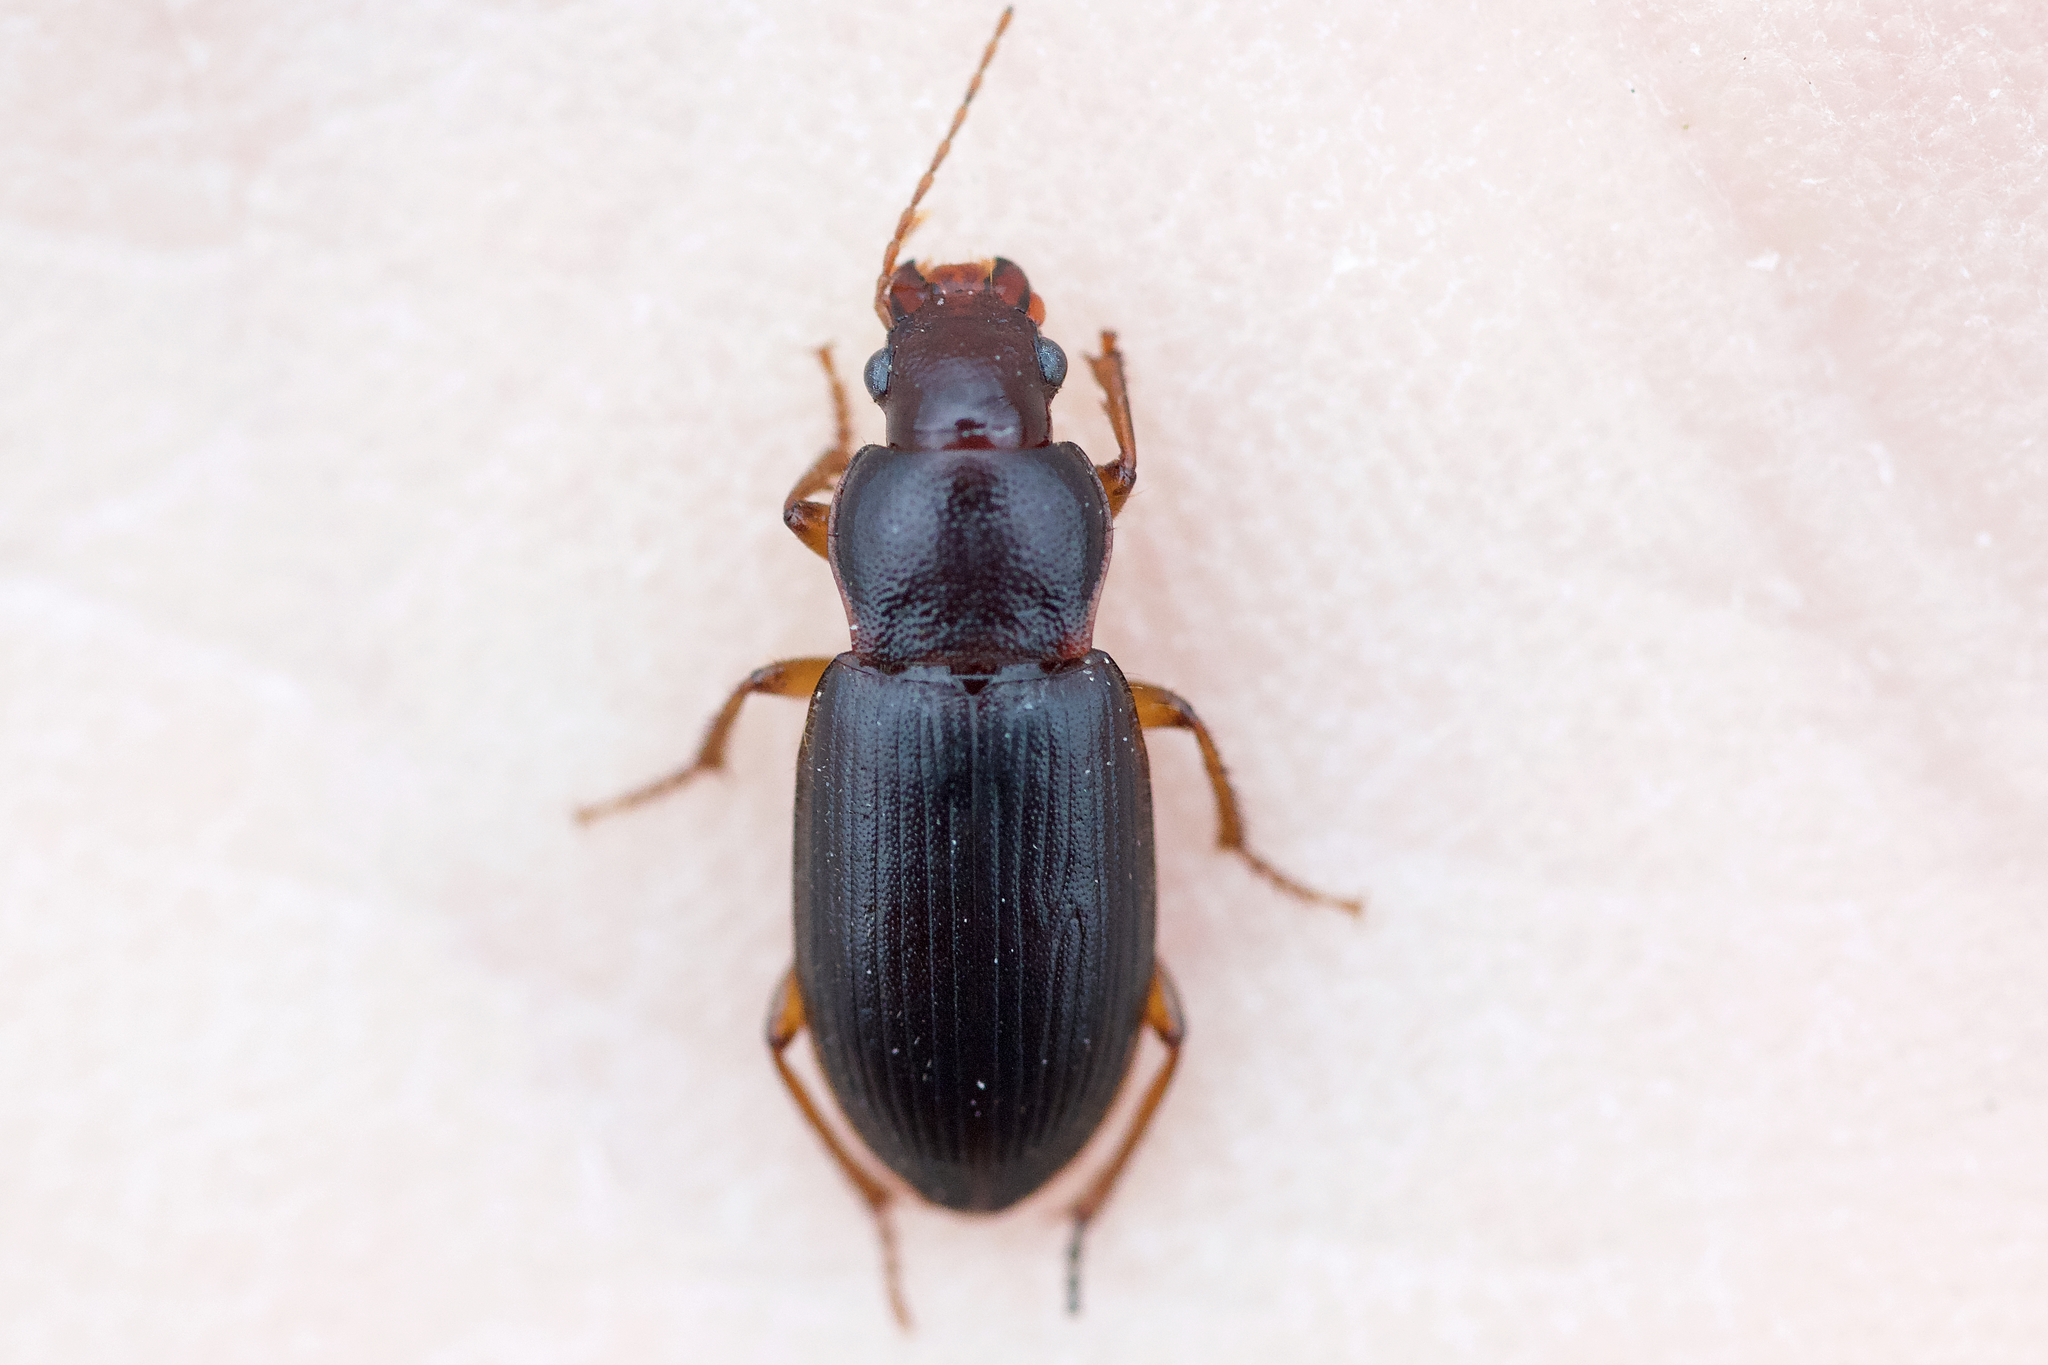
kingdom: Animalia
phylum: Arthropoda
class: Insecta
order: Coleoptera
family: Carabidae
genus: Ophonus
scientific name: Ophonus puncticeps
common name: Puncture-headed harp ground beetle
